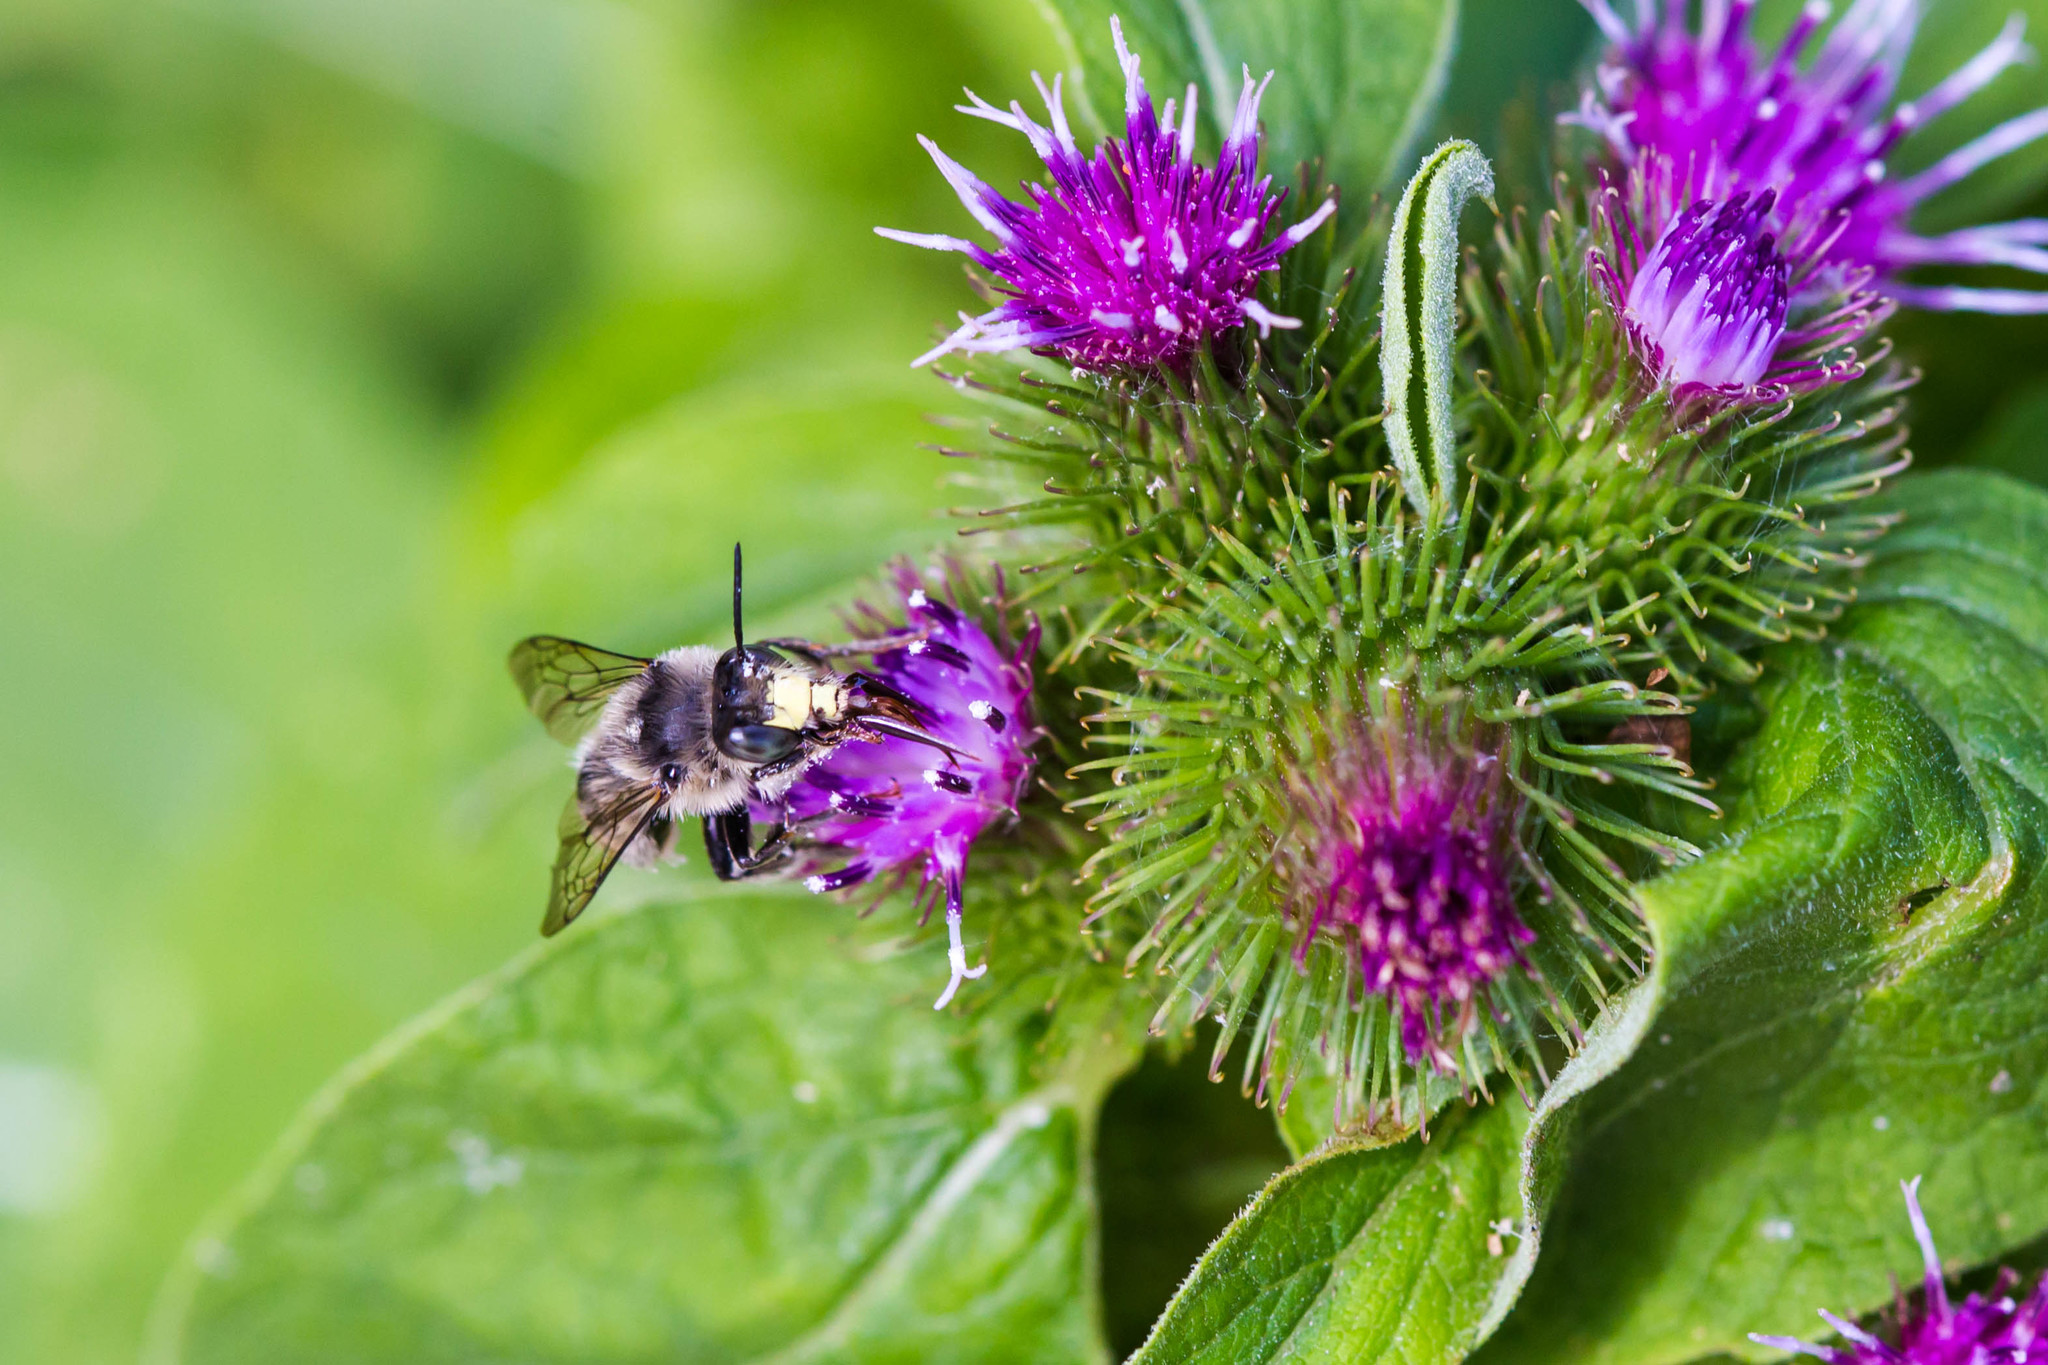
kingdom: Animalia
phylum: Arthropoda
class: Insecta
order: Hymenoptera
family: Apidae
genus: Anthophora
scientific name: Anthophora terminalis
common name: Orange-tipped wood-digger bee
